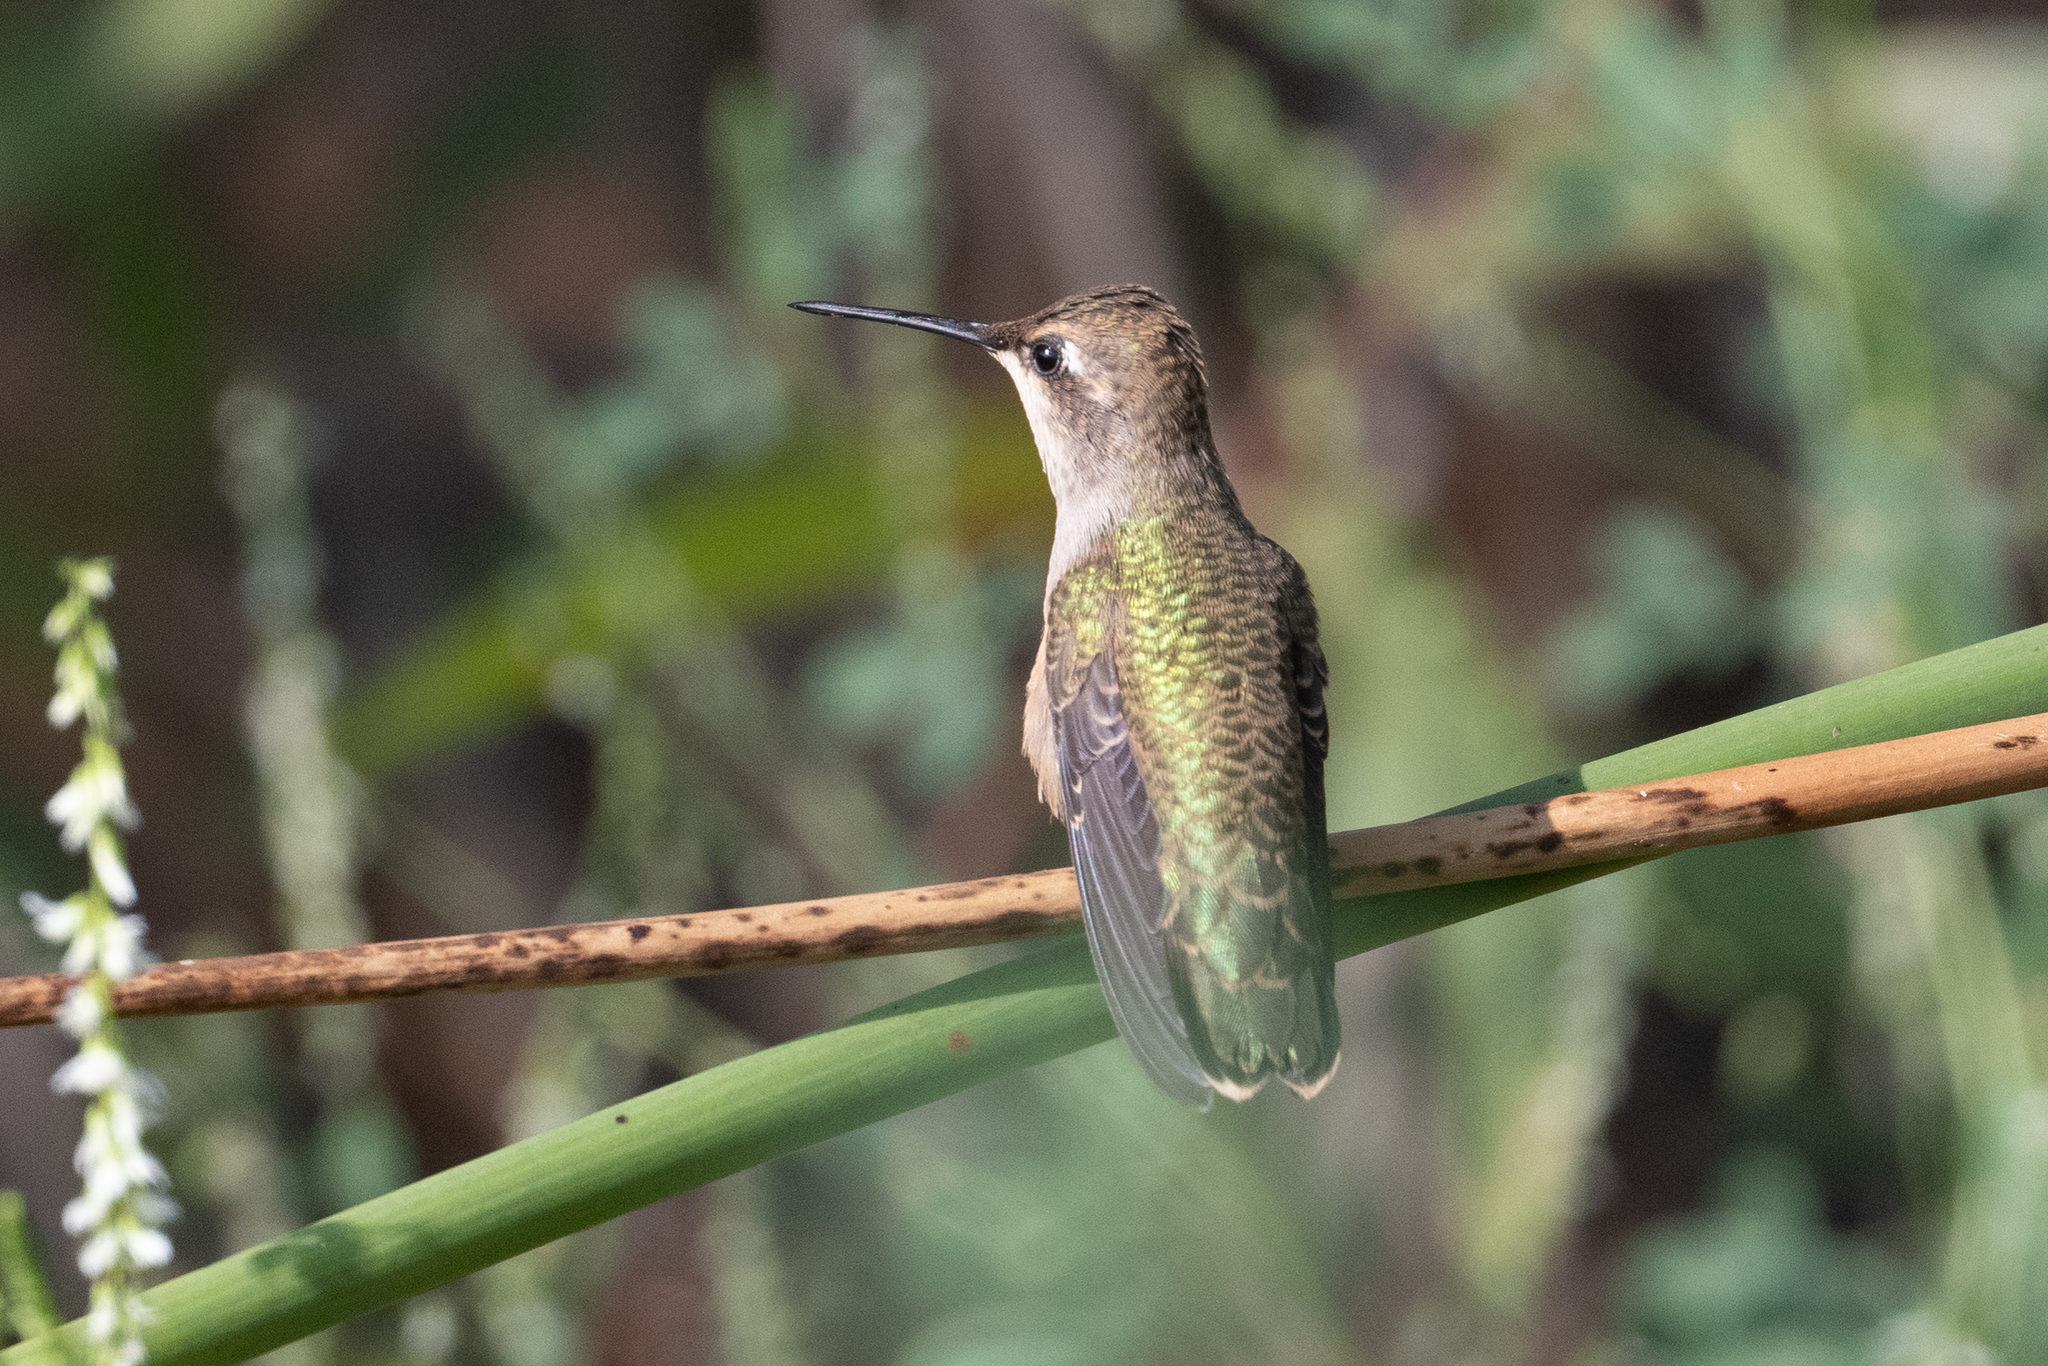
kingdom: Animalia
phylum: Chordata
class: Aves
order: Apodiformes
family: Trochilidae
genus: Archilochus
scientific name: Archilochus alexandri
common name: Black-chinned hummingbird
